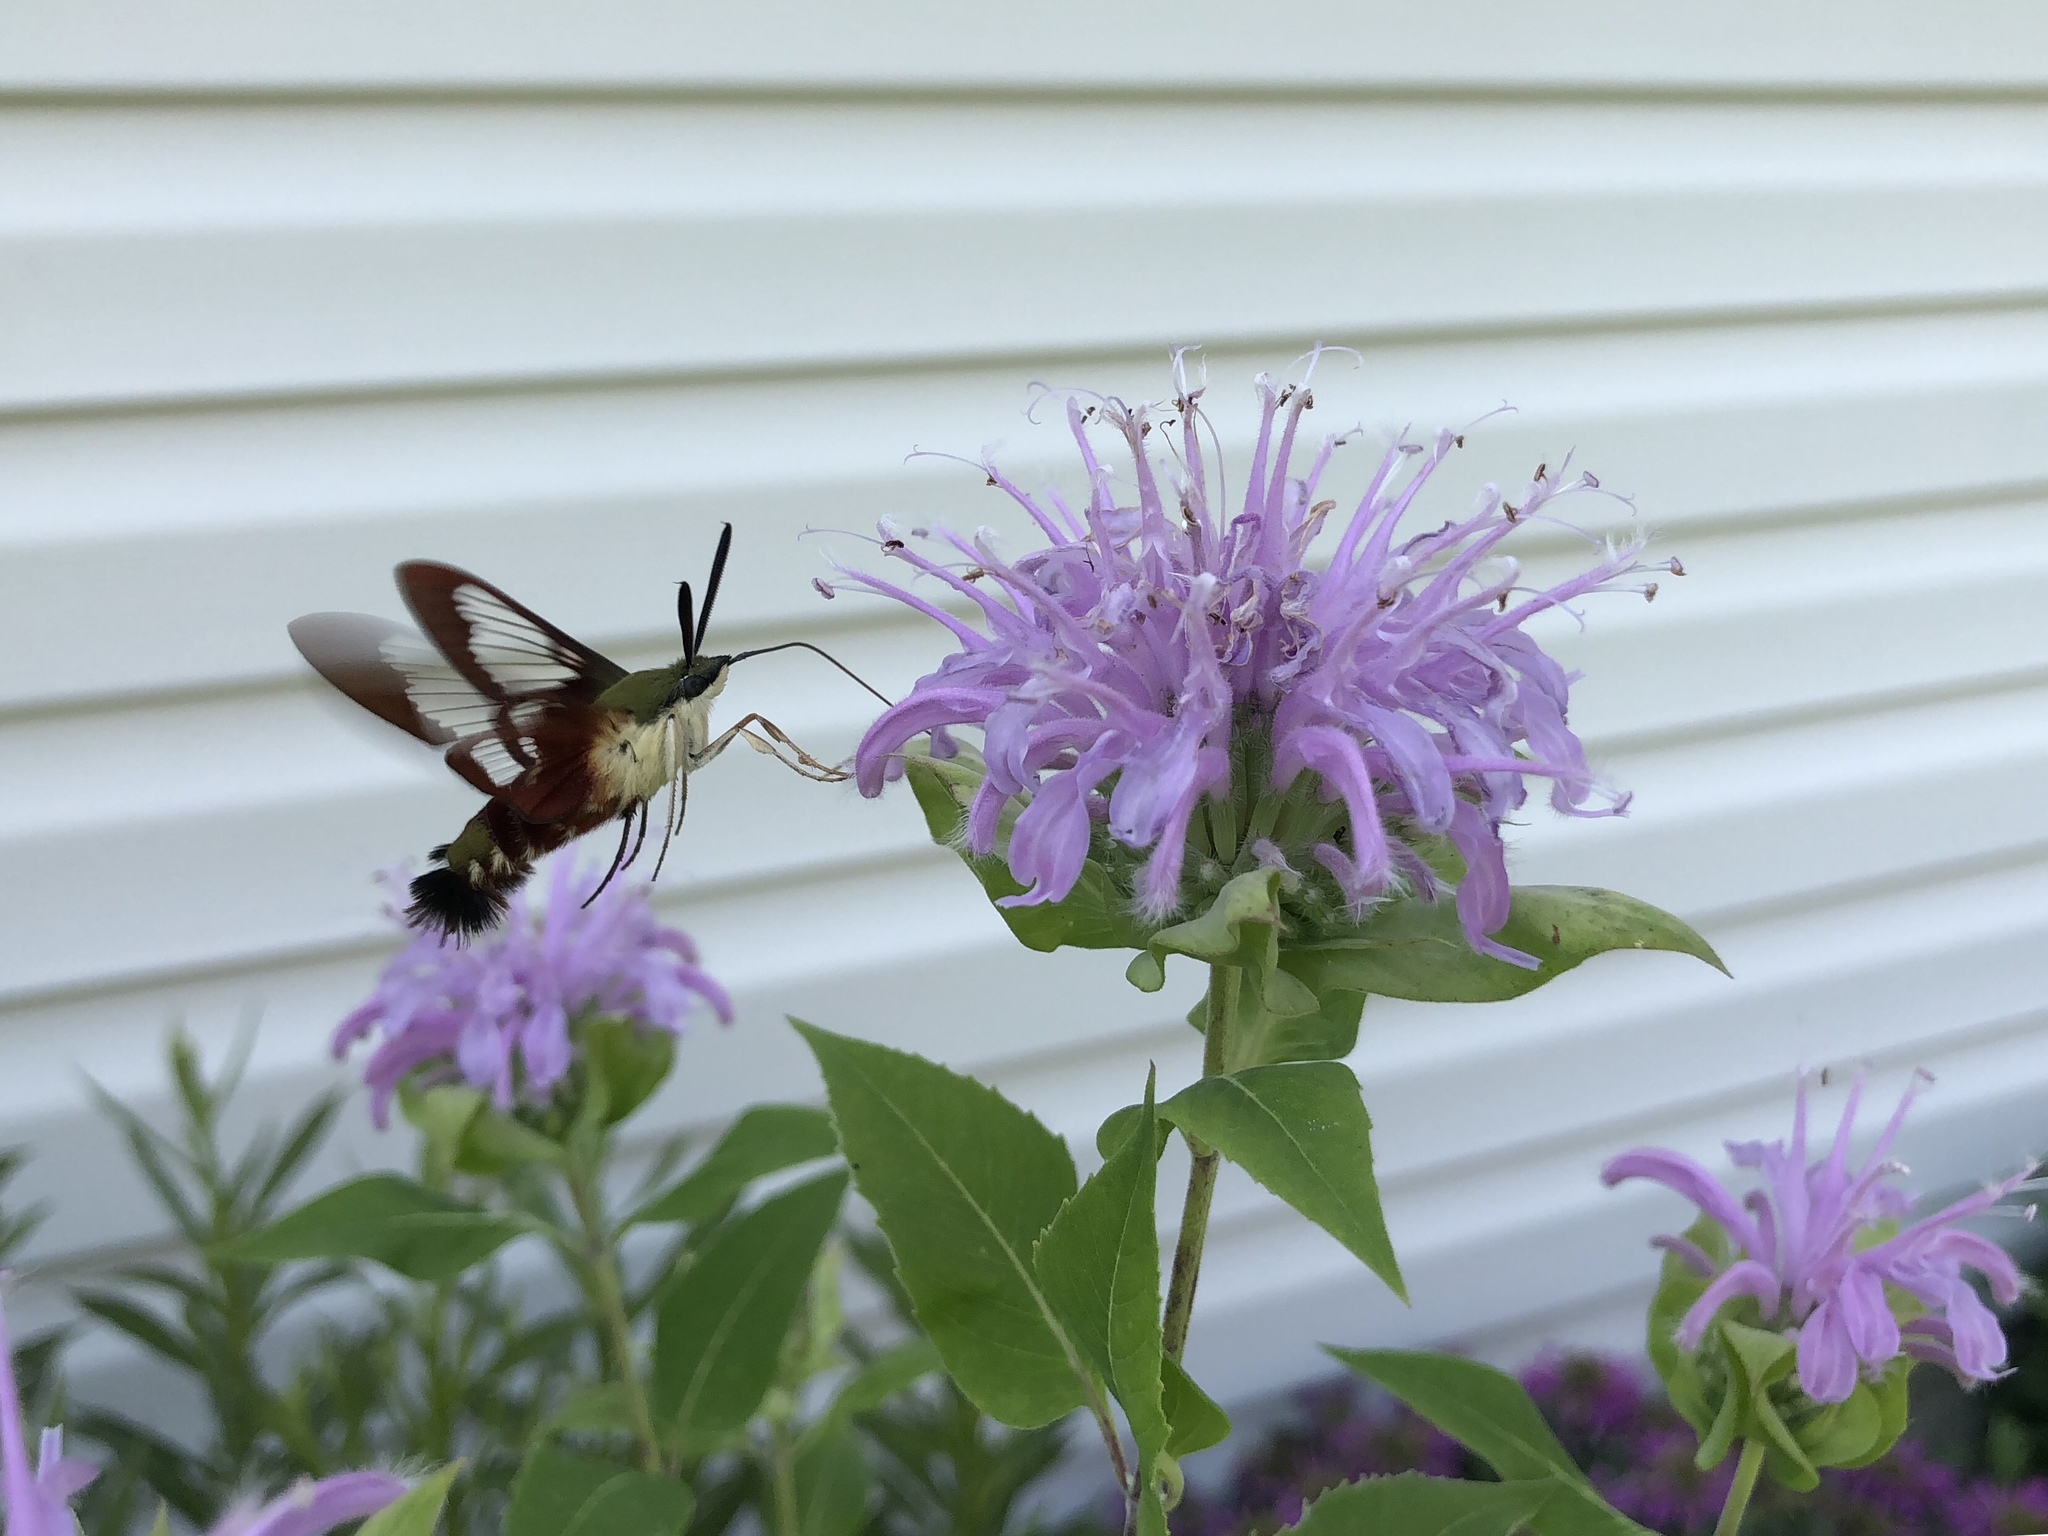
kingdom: Animalia
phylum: Arthropoda
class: Insecta
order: Lepidoptera
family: Sphingidae
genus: Hemaris
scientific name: Hemaris thysbe
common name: Common clear-wing
